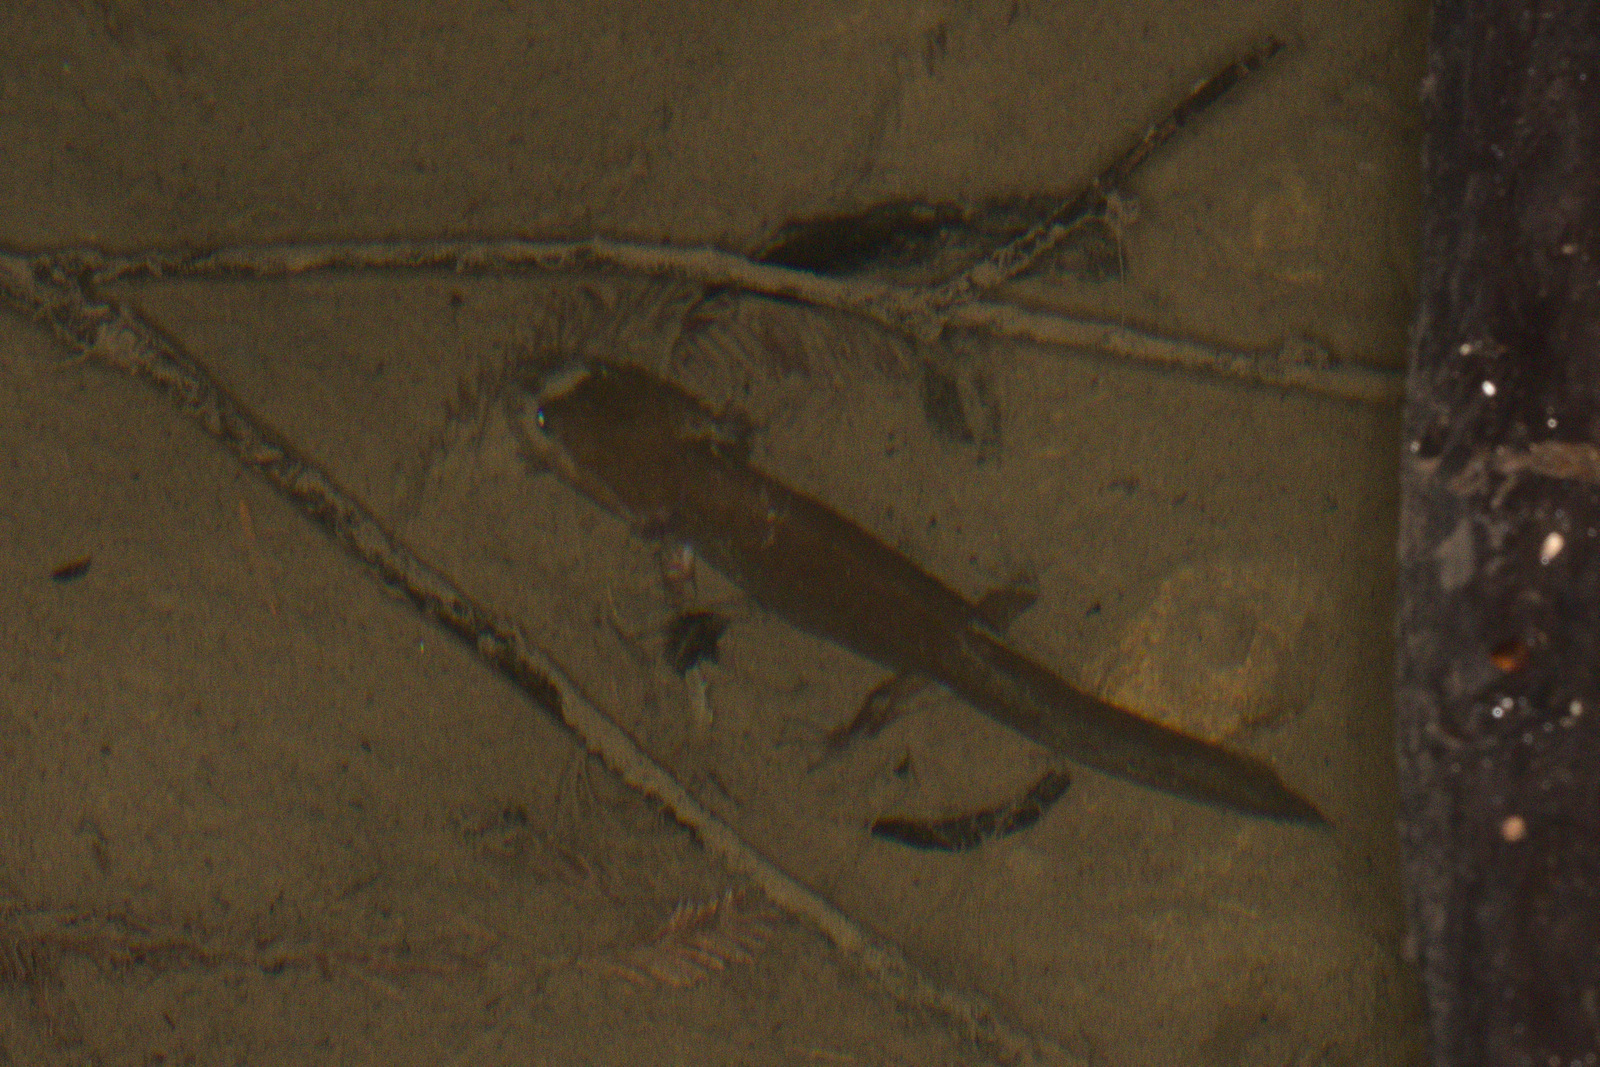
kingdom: Animalia
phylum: Chordata
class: Amphibia
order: Caudata
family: Ambystomatidae
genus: Dicamptodon
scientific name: Dicamptodon ensatus
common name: California giant salamander
